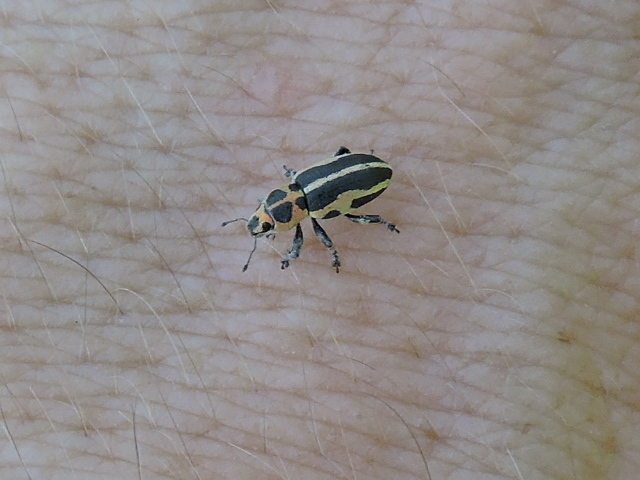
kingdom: Animalia
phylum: Arthropoda
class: Insecta
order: Coleoptera
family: Curculionidae
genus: Eudiagogus
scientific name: Eudiagogus pulcher
